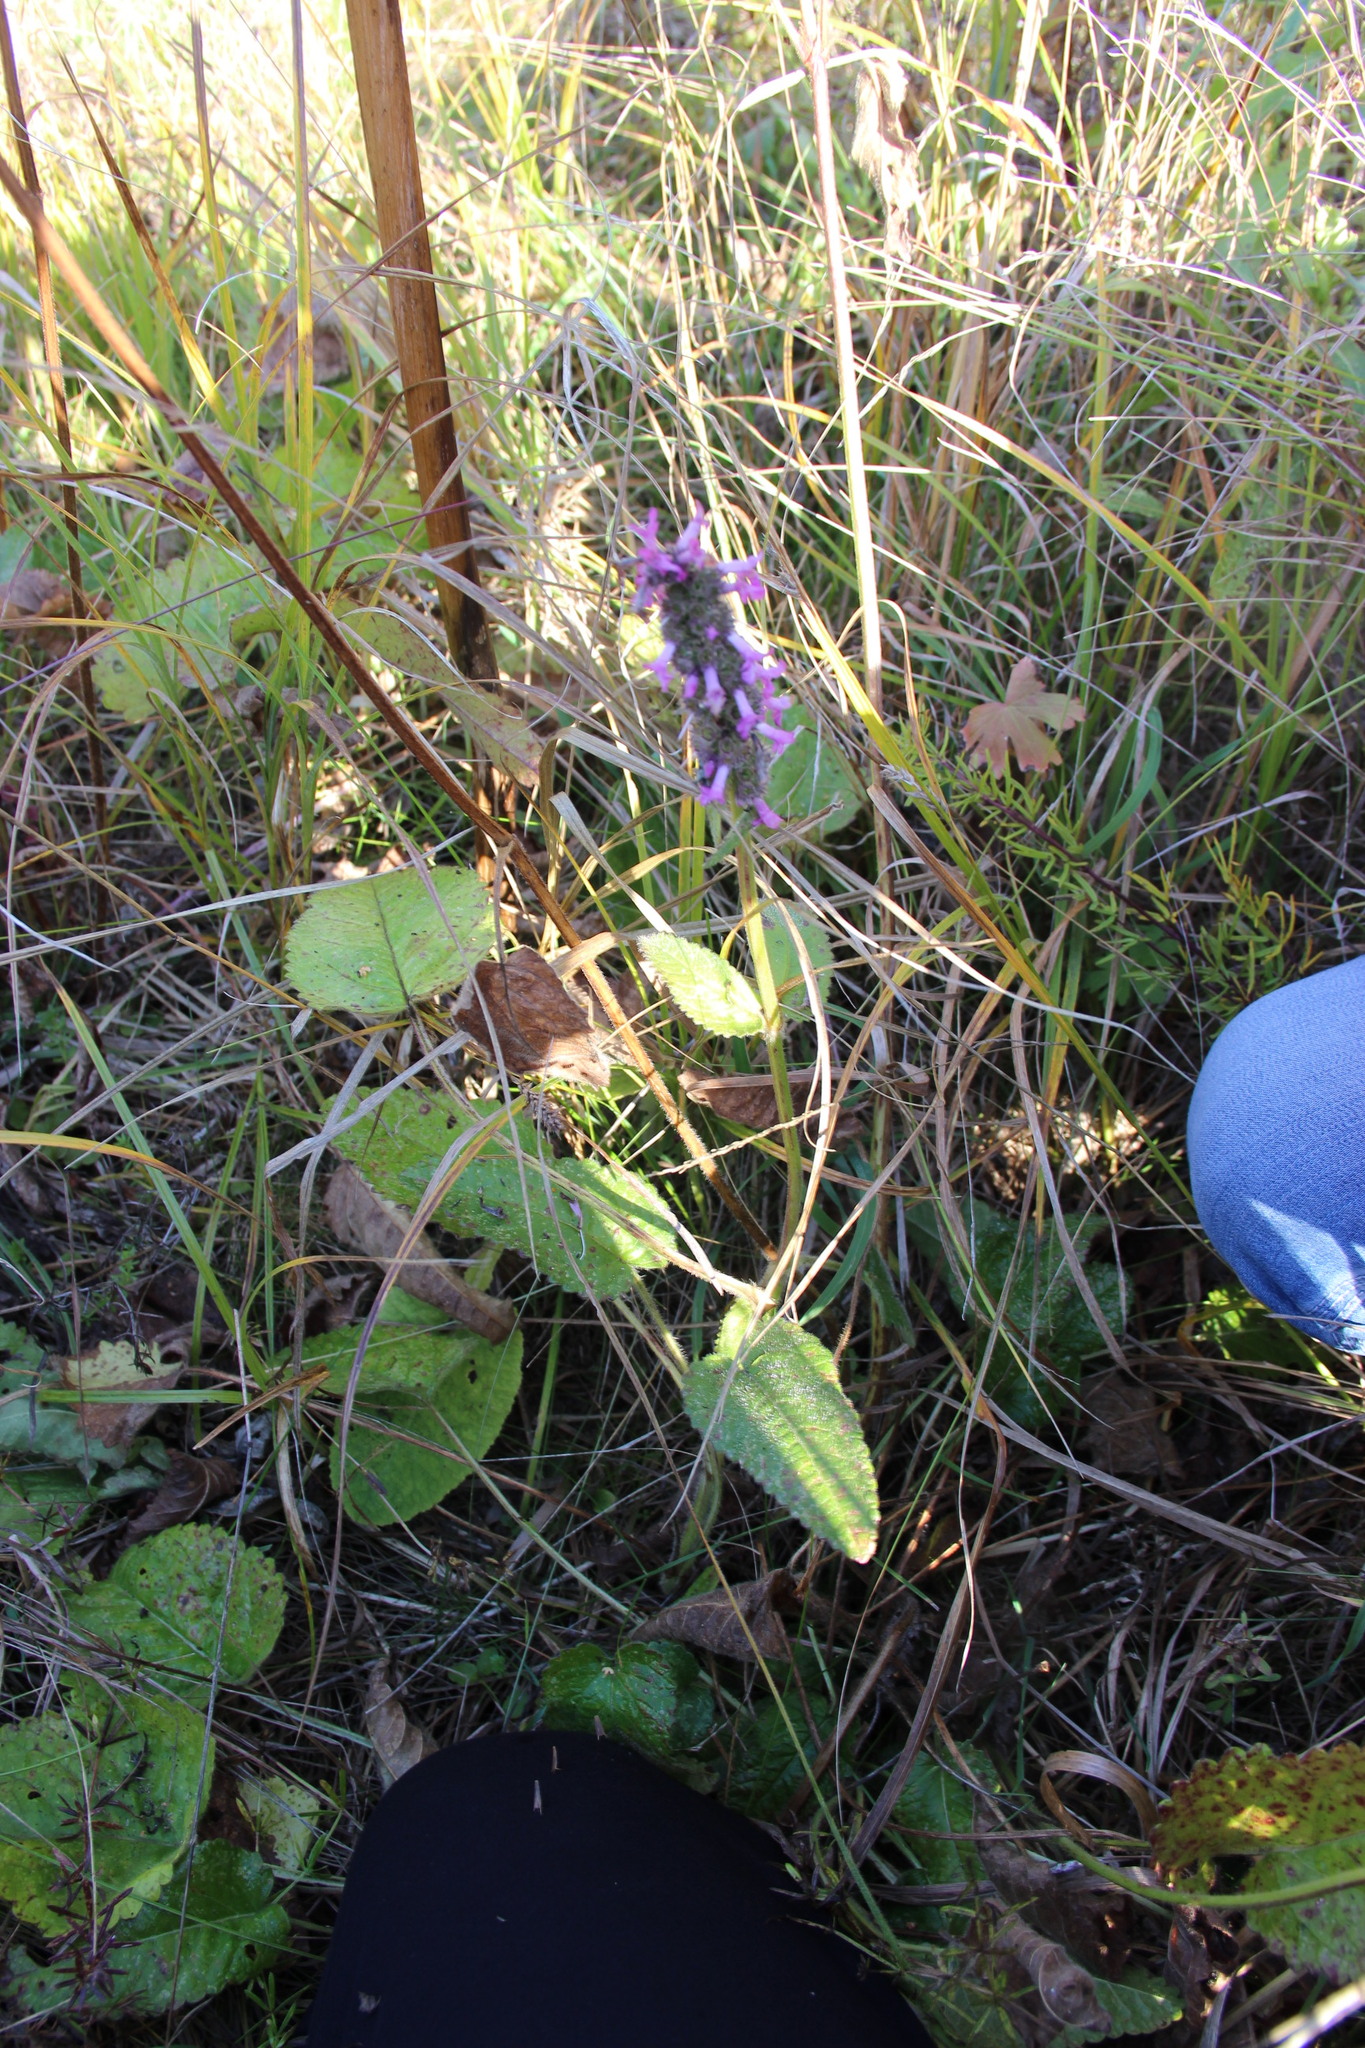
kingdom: Plantae
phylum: Tracheophyta
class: Magnoliopsida
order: Lamiales
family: Lamiaceae
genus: Betonica
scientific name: Betonica officinalis
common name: Bishop's-wort
